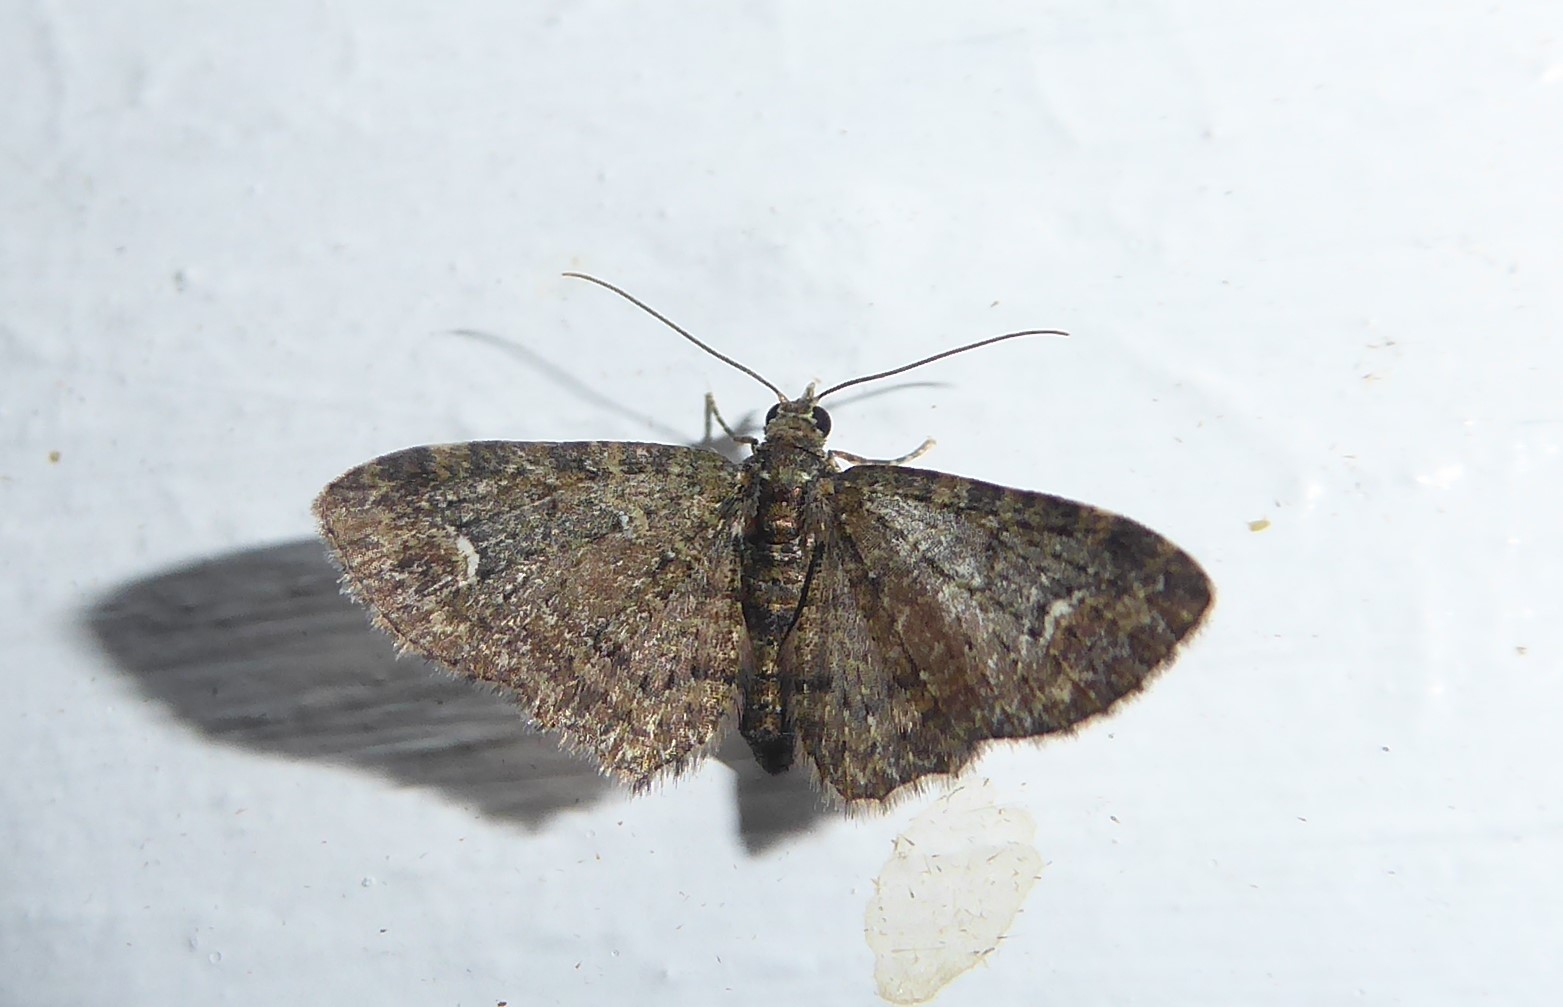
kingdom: Animalia
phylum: Arthropoda
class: Insecta
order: Lepidoptera
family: Geometridae
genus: Pasiphilodes
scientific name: Pasiphilodes testulata
